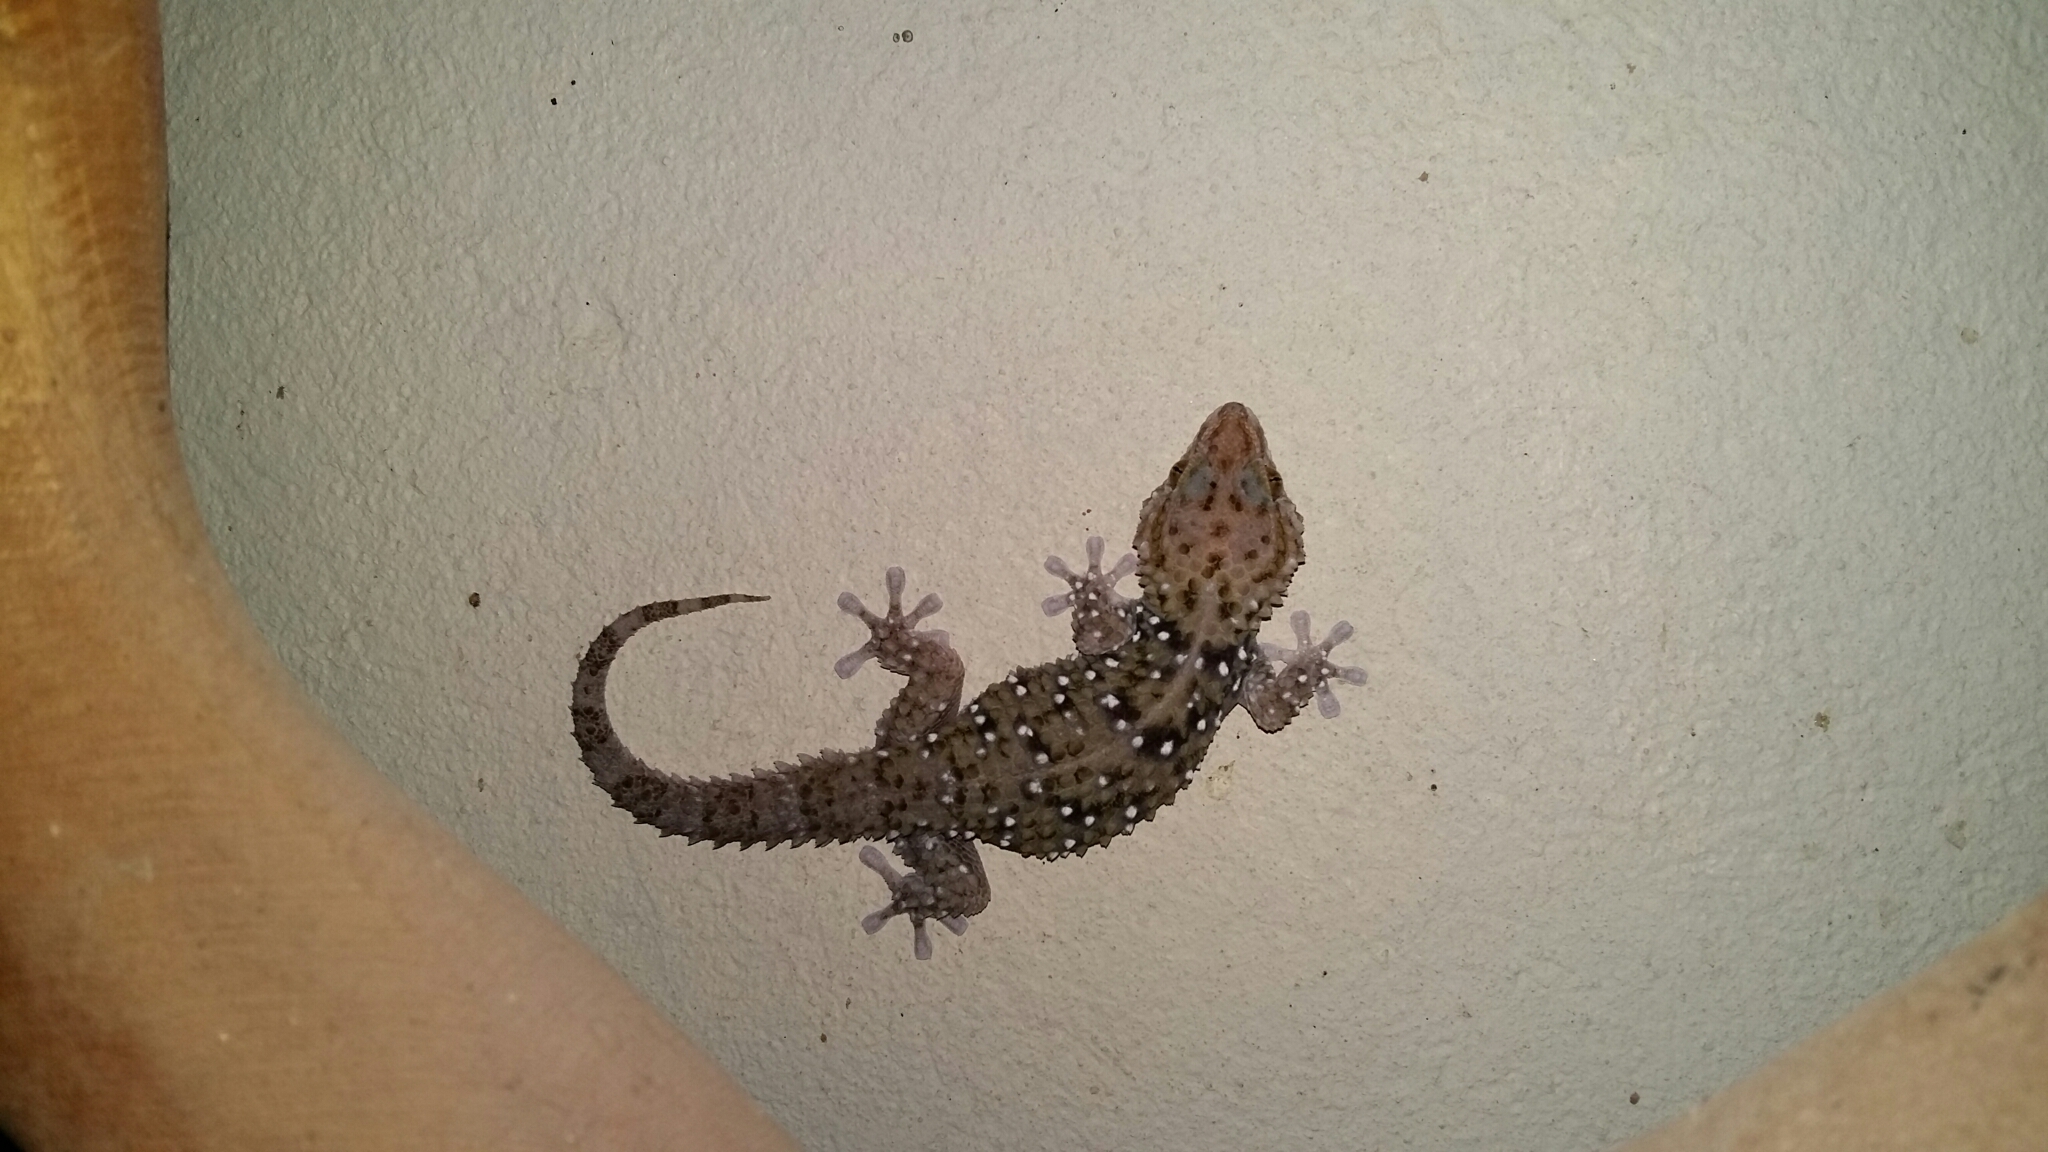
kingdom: Animalia
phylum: Chordata
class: Squamata
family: Gekkonidae
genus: Chondrodactylus
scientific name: Chondrodactylus bibronii
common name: Bibron's gecko
